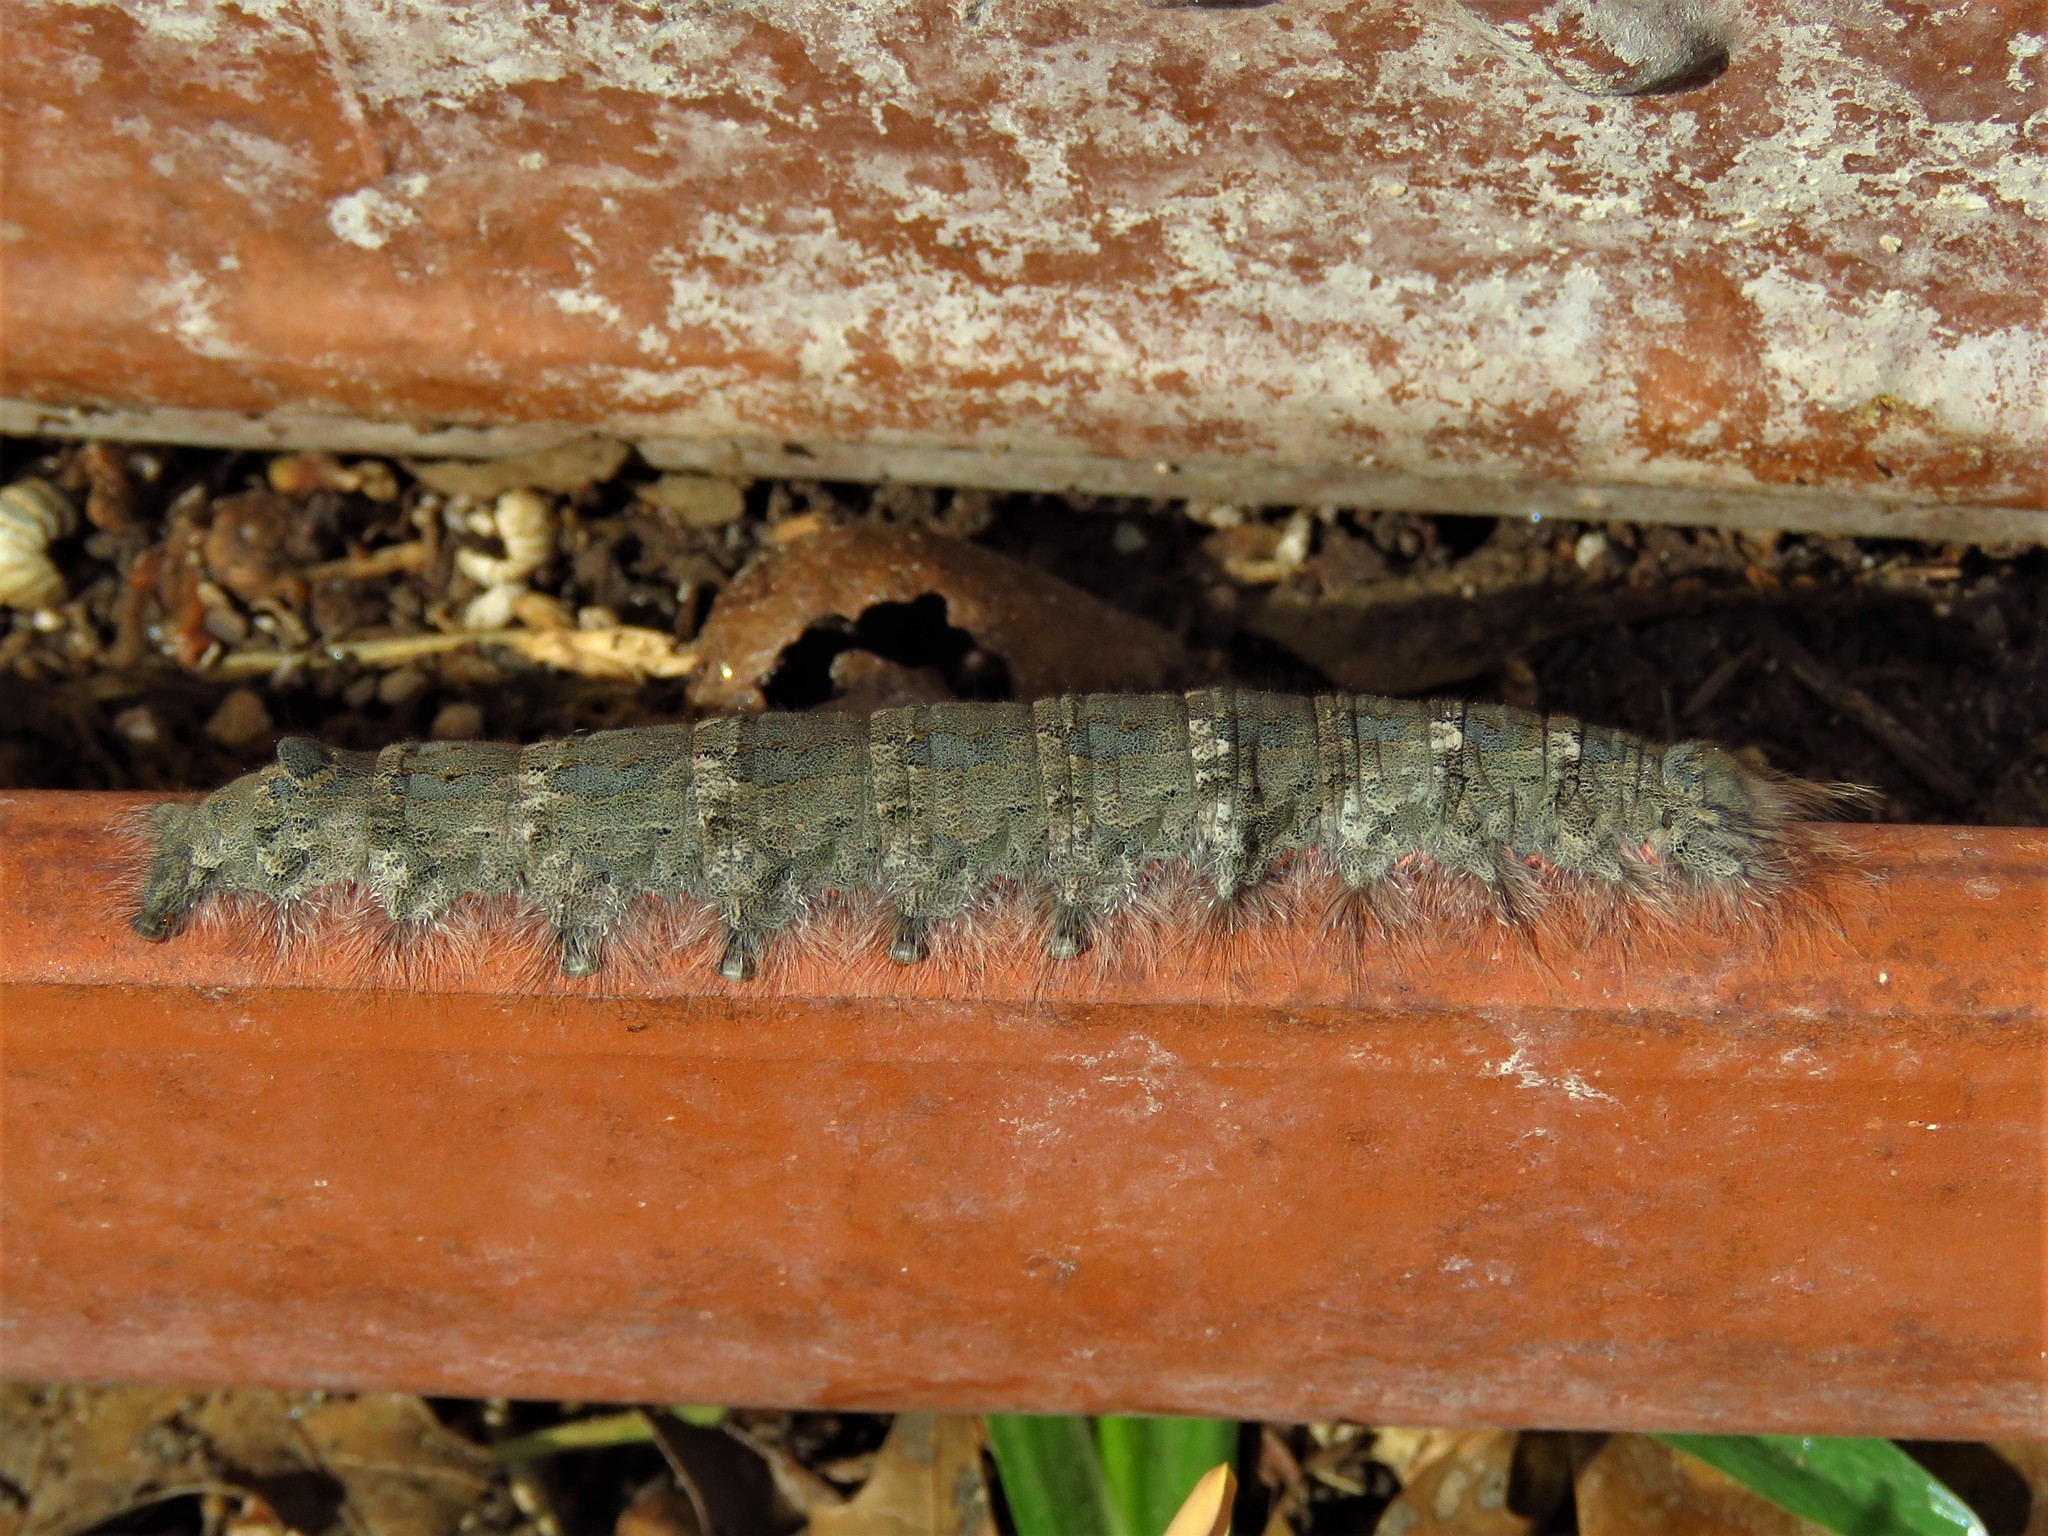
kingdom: Animalia
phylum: Arthropoda
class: Insecta
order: Lepidoptera
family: Lasiocampidae
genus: Phyllodesma
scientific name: Phyllodesma americana
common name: American lappet moth
